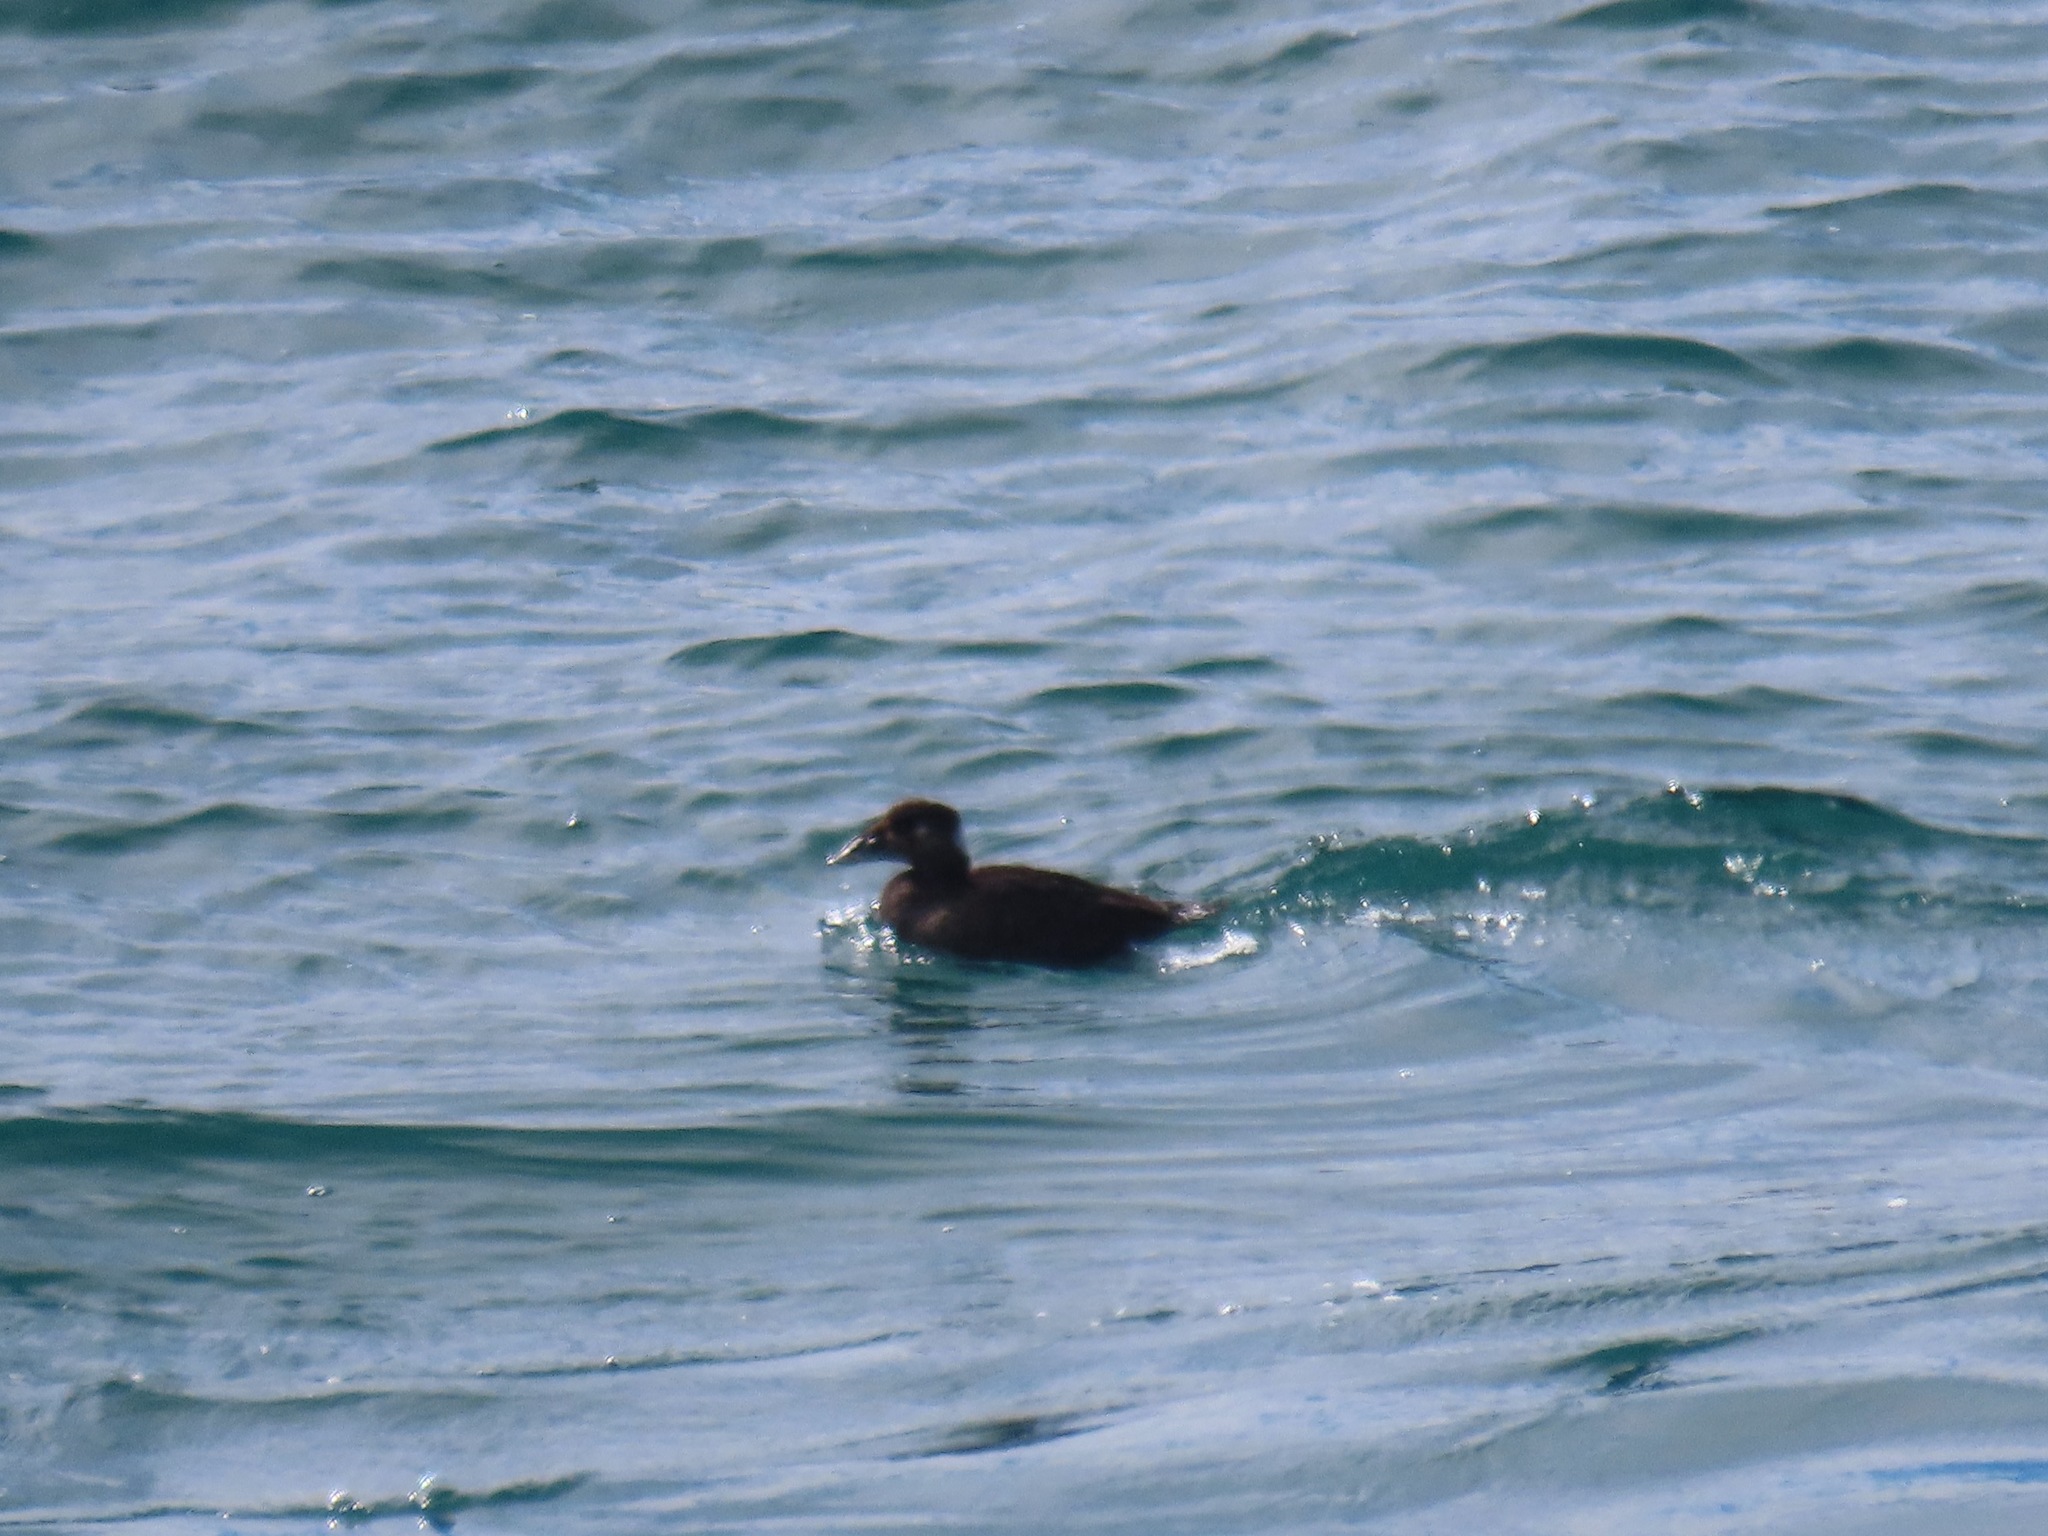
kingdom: Animalia
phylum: Chordata
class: Aves
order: Anseriformes
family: Anatidae
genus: Melanitta
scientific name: Melanitta perspicillata
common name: Surf scoter
